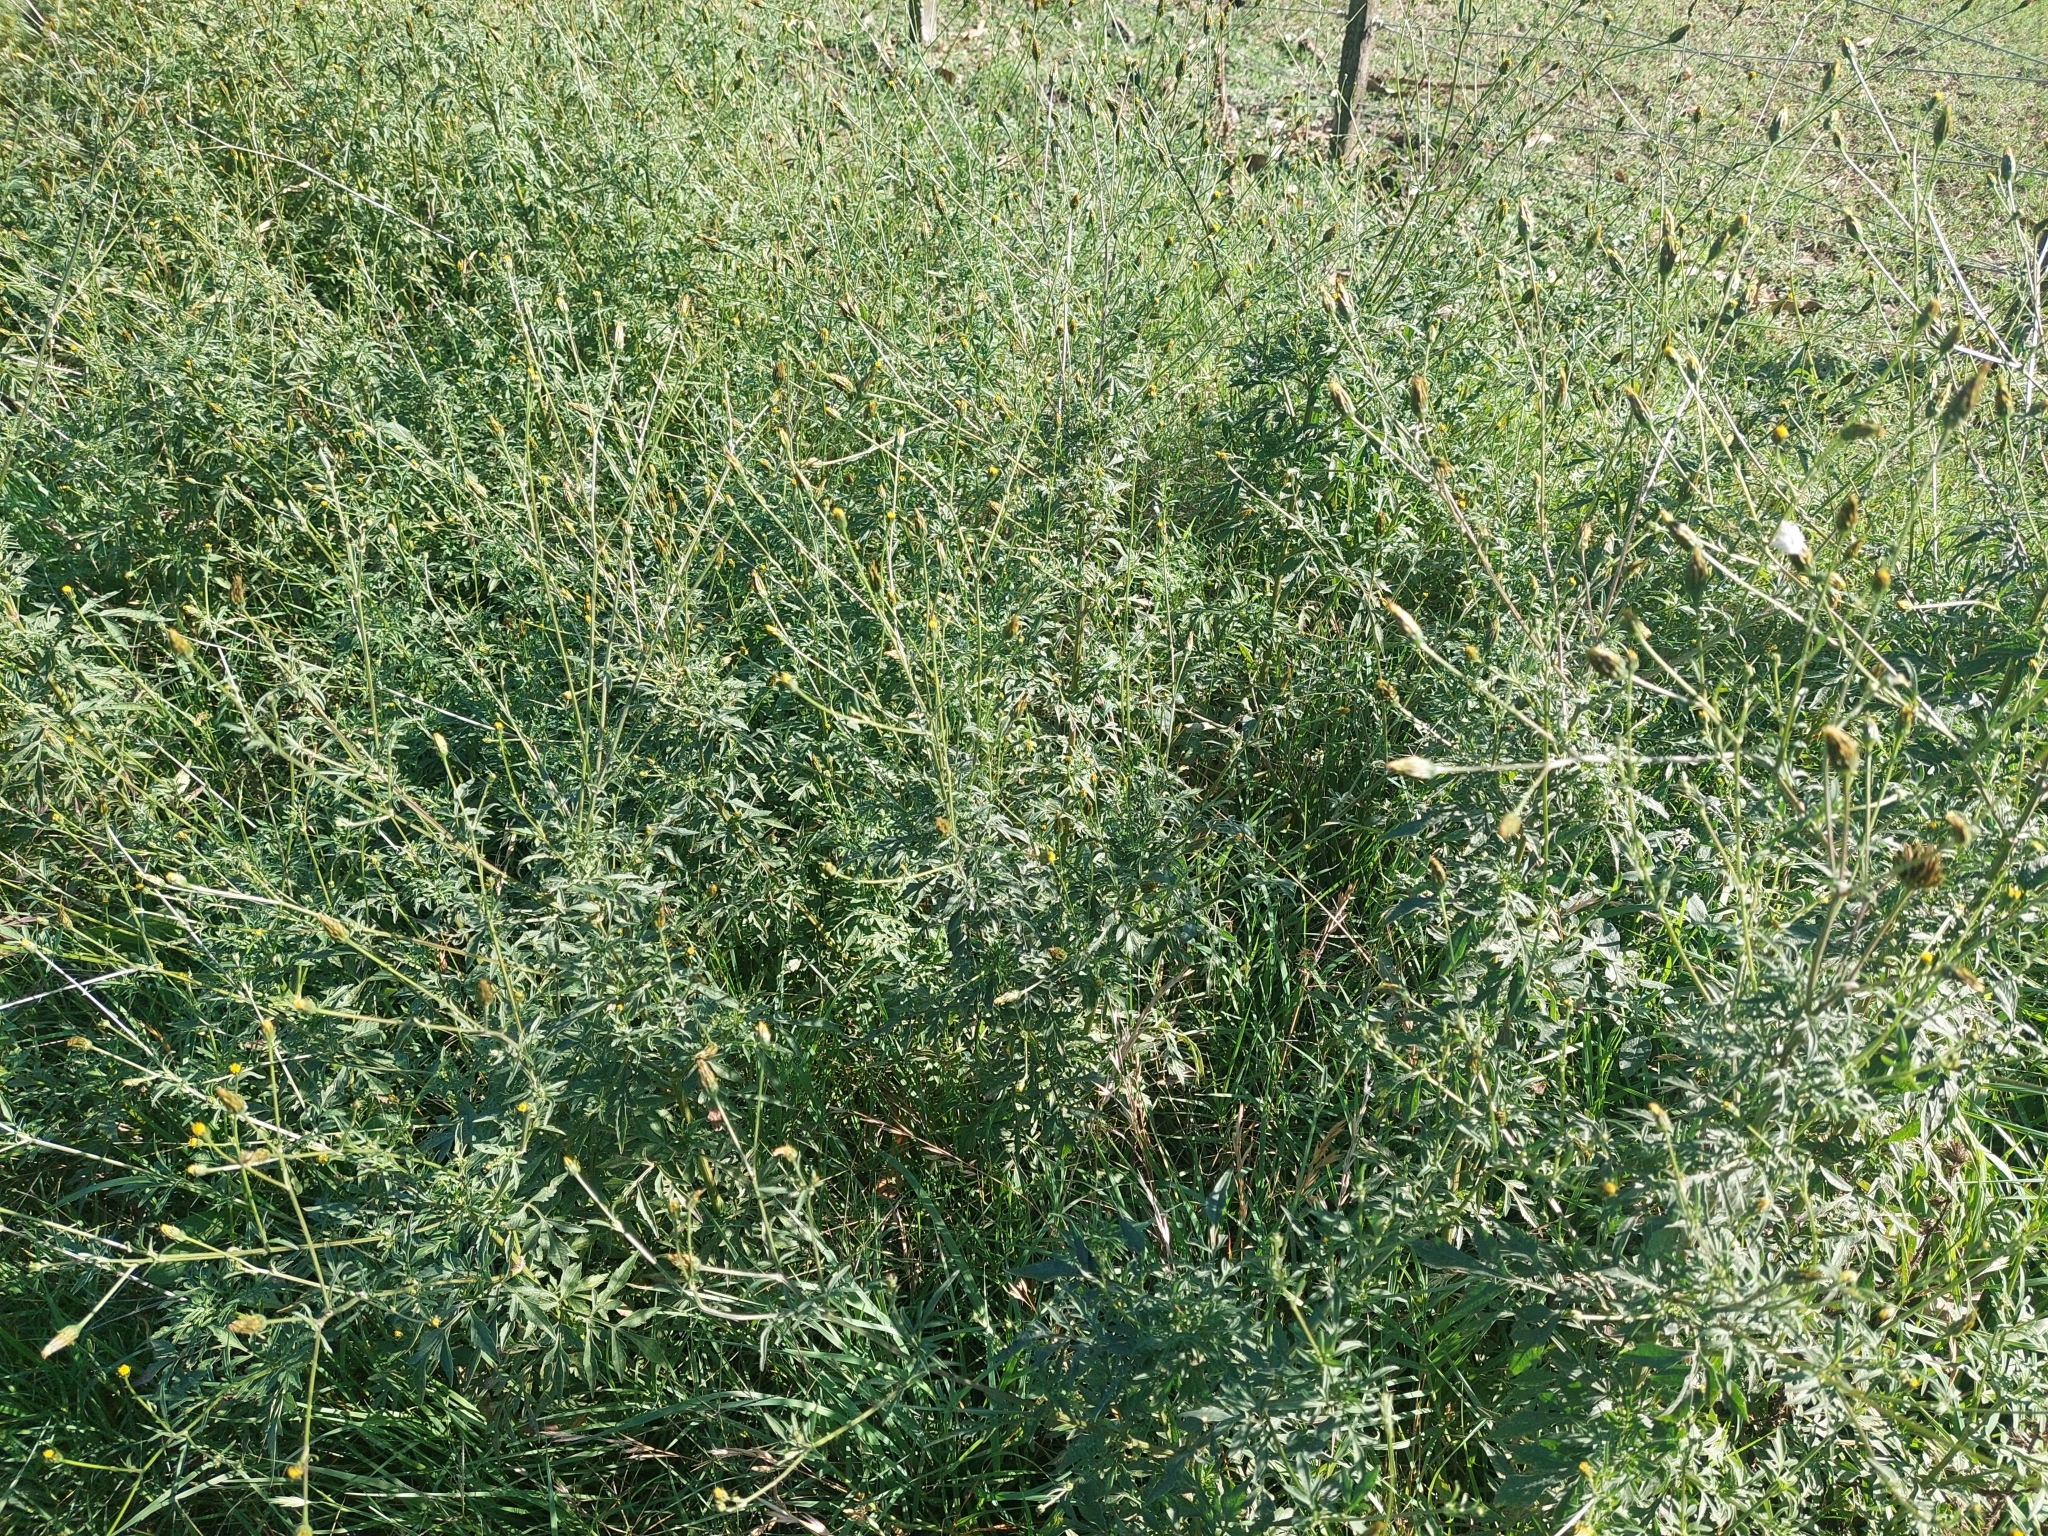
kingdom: Plantae
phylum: Tracheophyta
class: Magnoliopsida
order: Asterales
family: Asteraceae
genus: Tagetes
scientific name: Tagetes minuta
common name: Muster john henry
